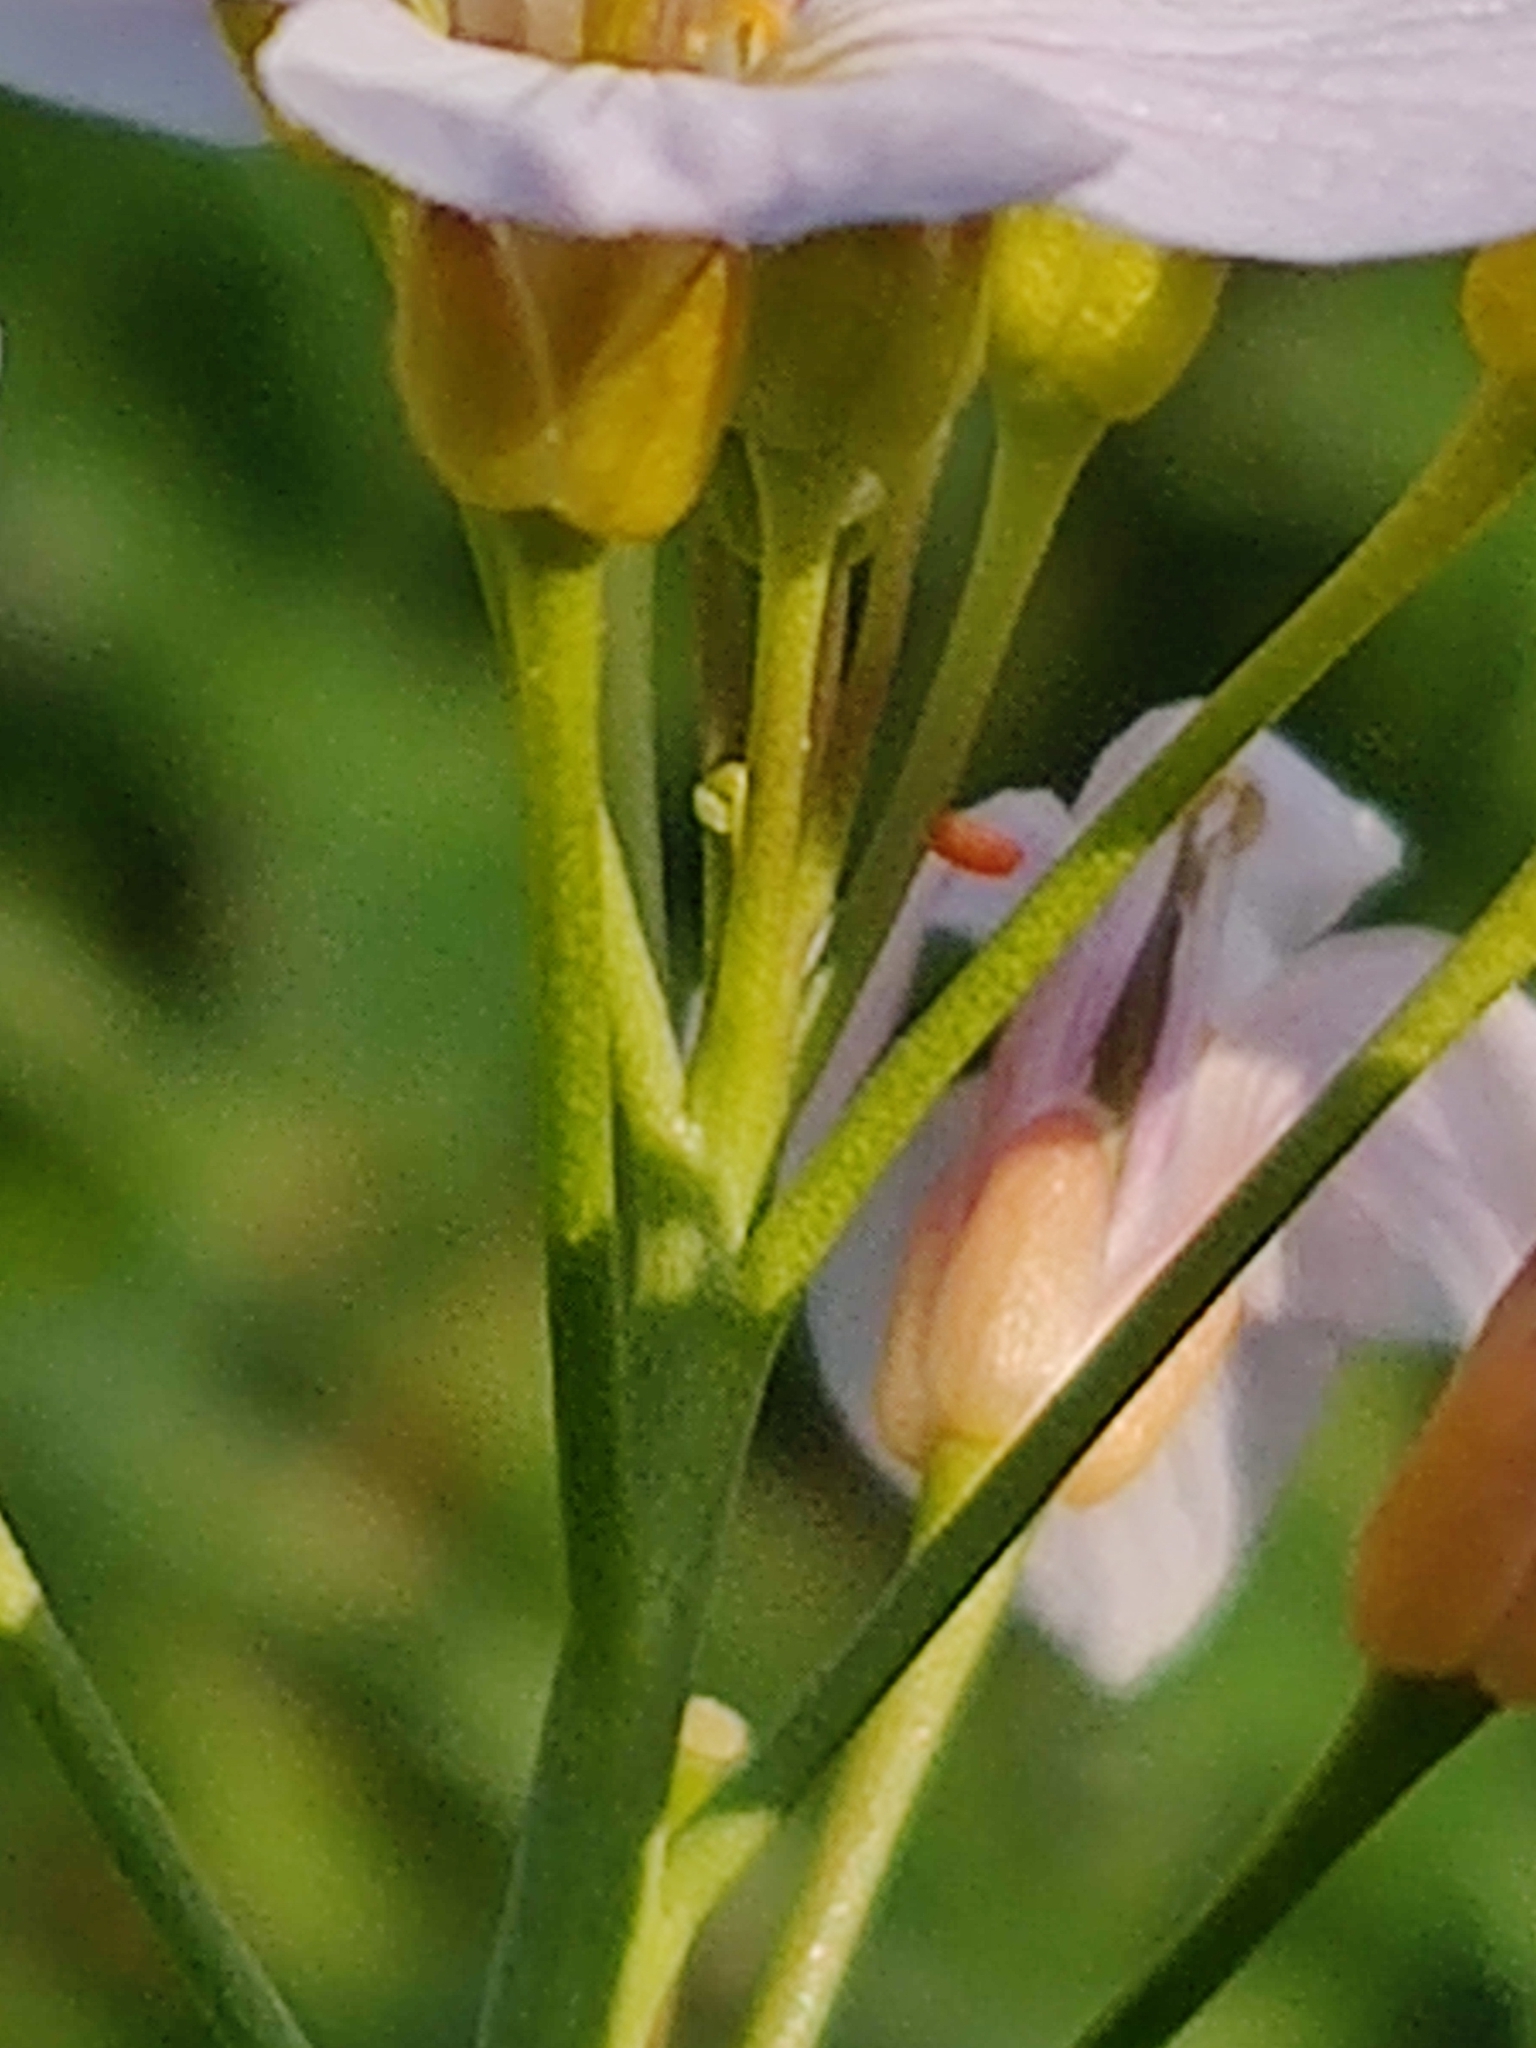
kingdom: Animalia
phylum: Arthropoda
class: Insecta
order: Lepidoptera
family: Pieridae
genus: Anthocharis
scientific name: Anthocharis cardamines
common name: Orange-tip
